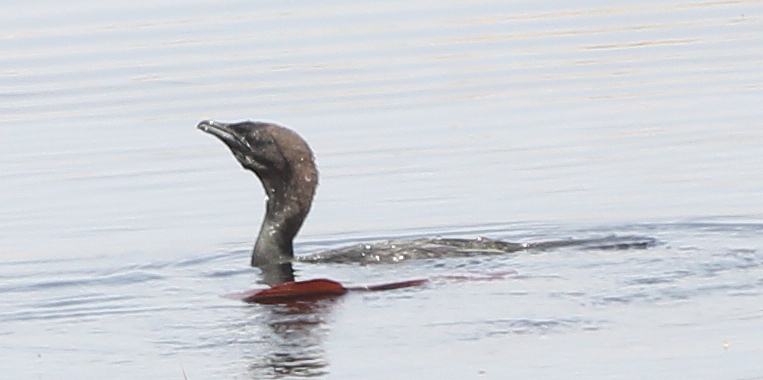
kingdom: Animalia
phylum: Chordata
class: Aves
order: Suliformes
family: Phalacrocoracidae
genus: Microcarbo
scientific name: Microcarbo pygmaeus
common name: Pygmy cormorant
